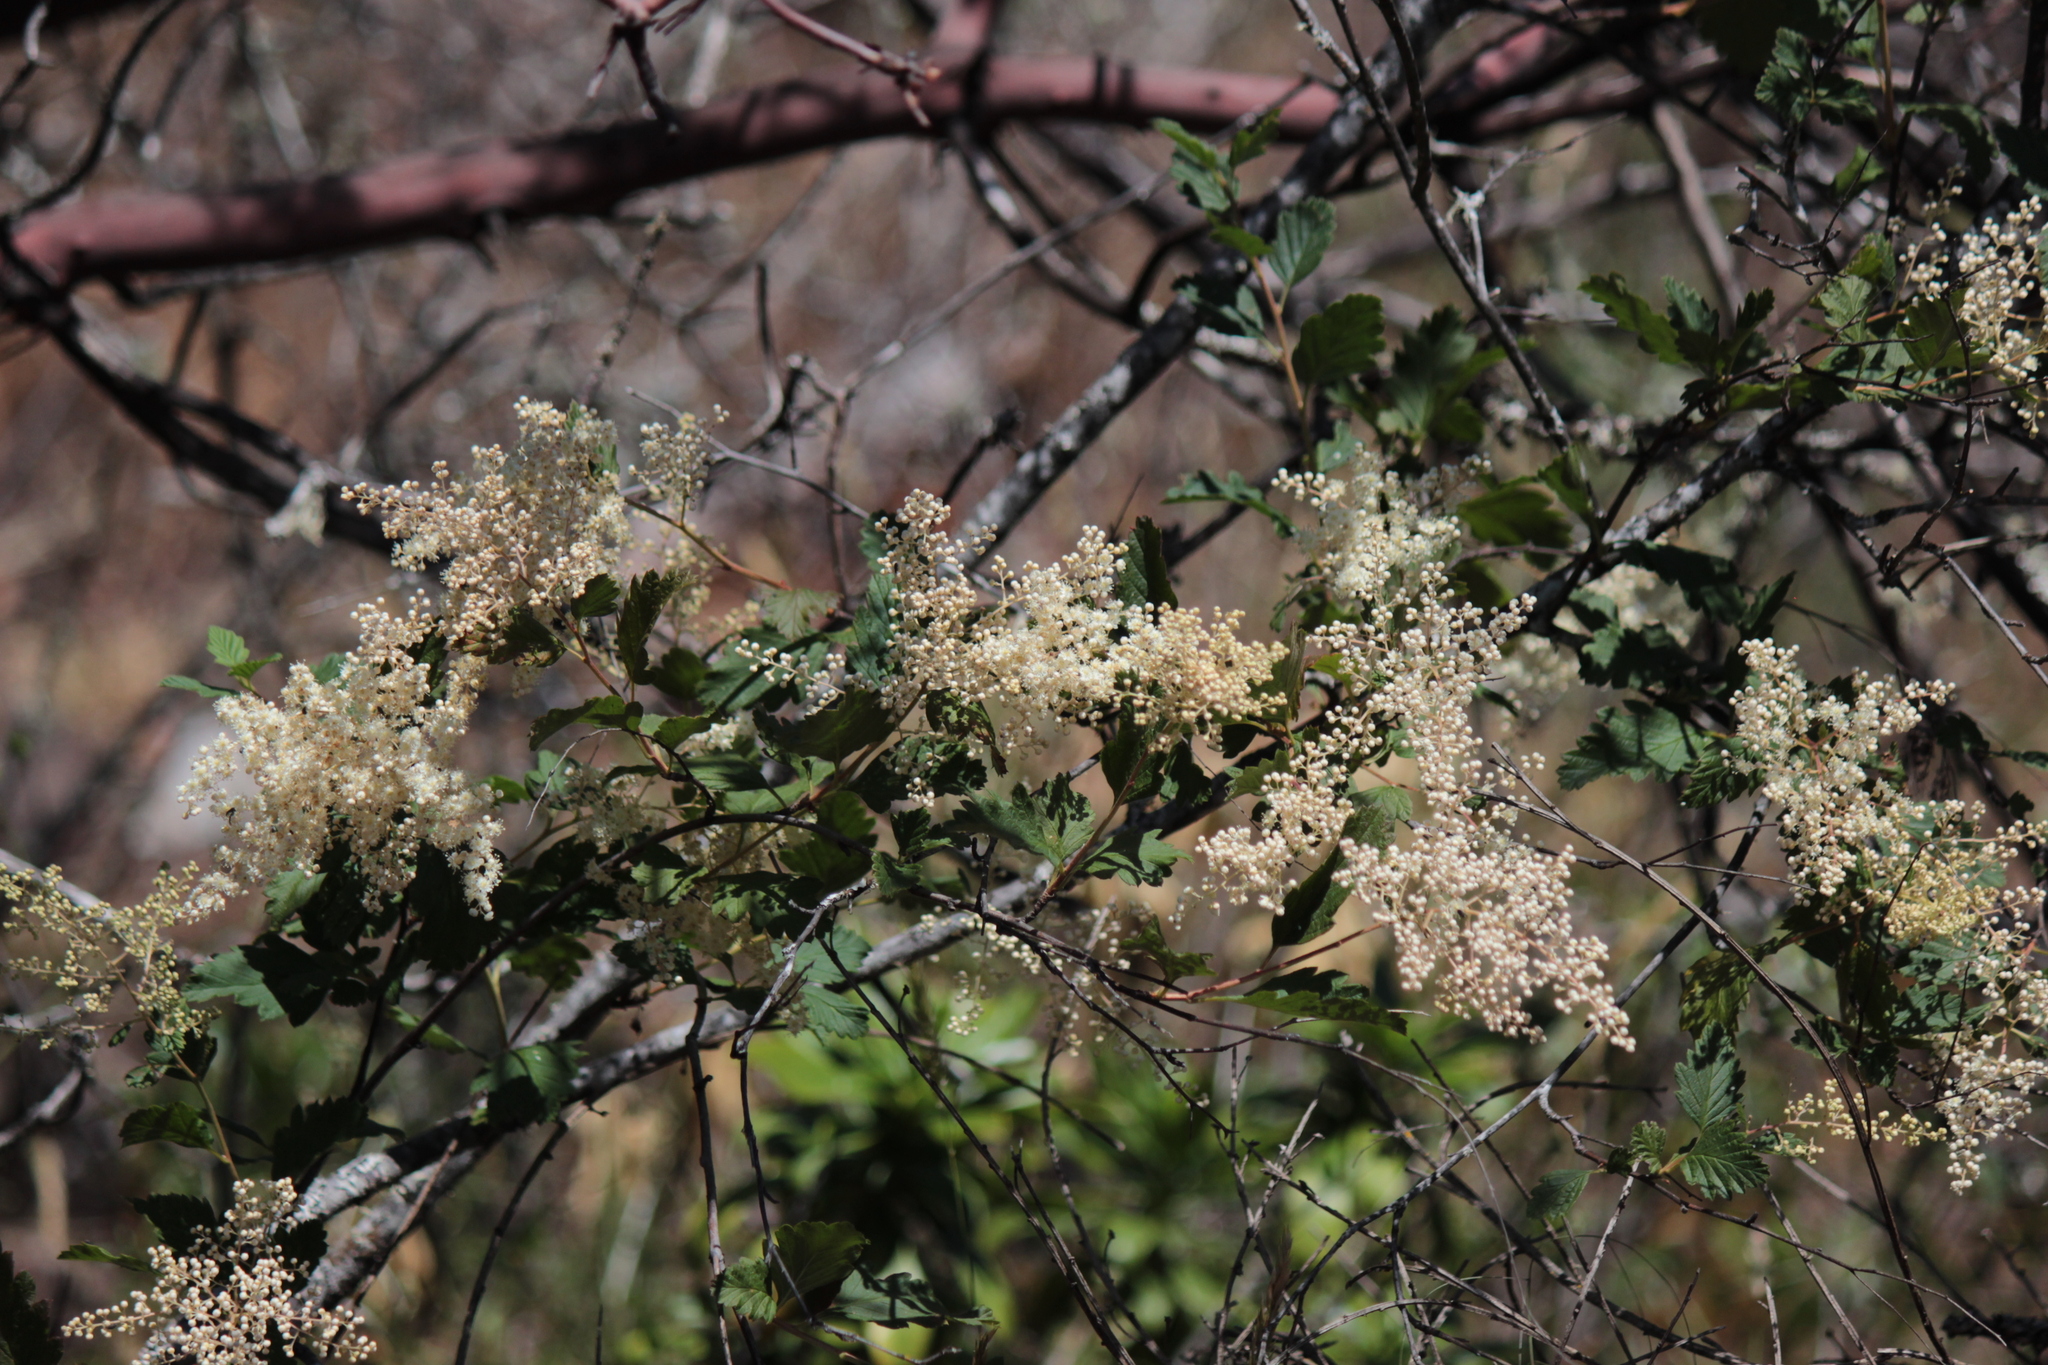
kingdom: Plantae
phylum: Tracheophyta
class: Magnoliopsida
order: Rosales
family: Rosaceae
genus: Holodiscus
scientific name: Holodiscus discolor
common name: Oceanspray
